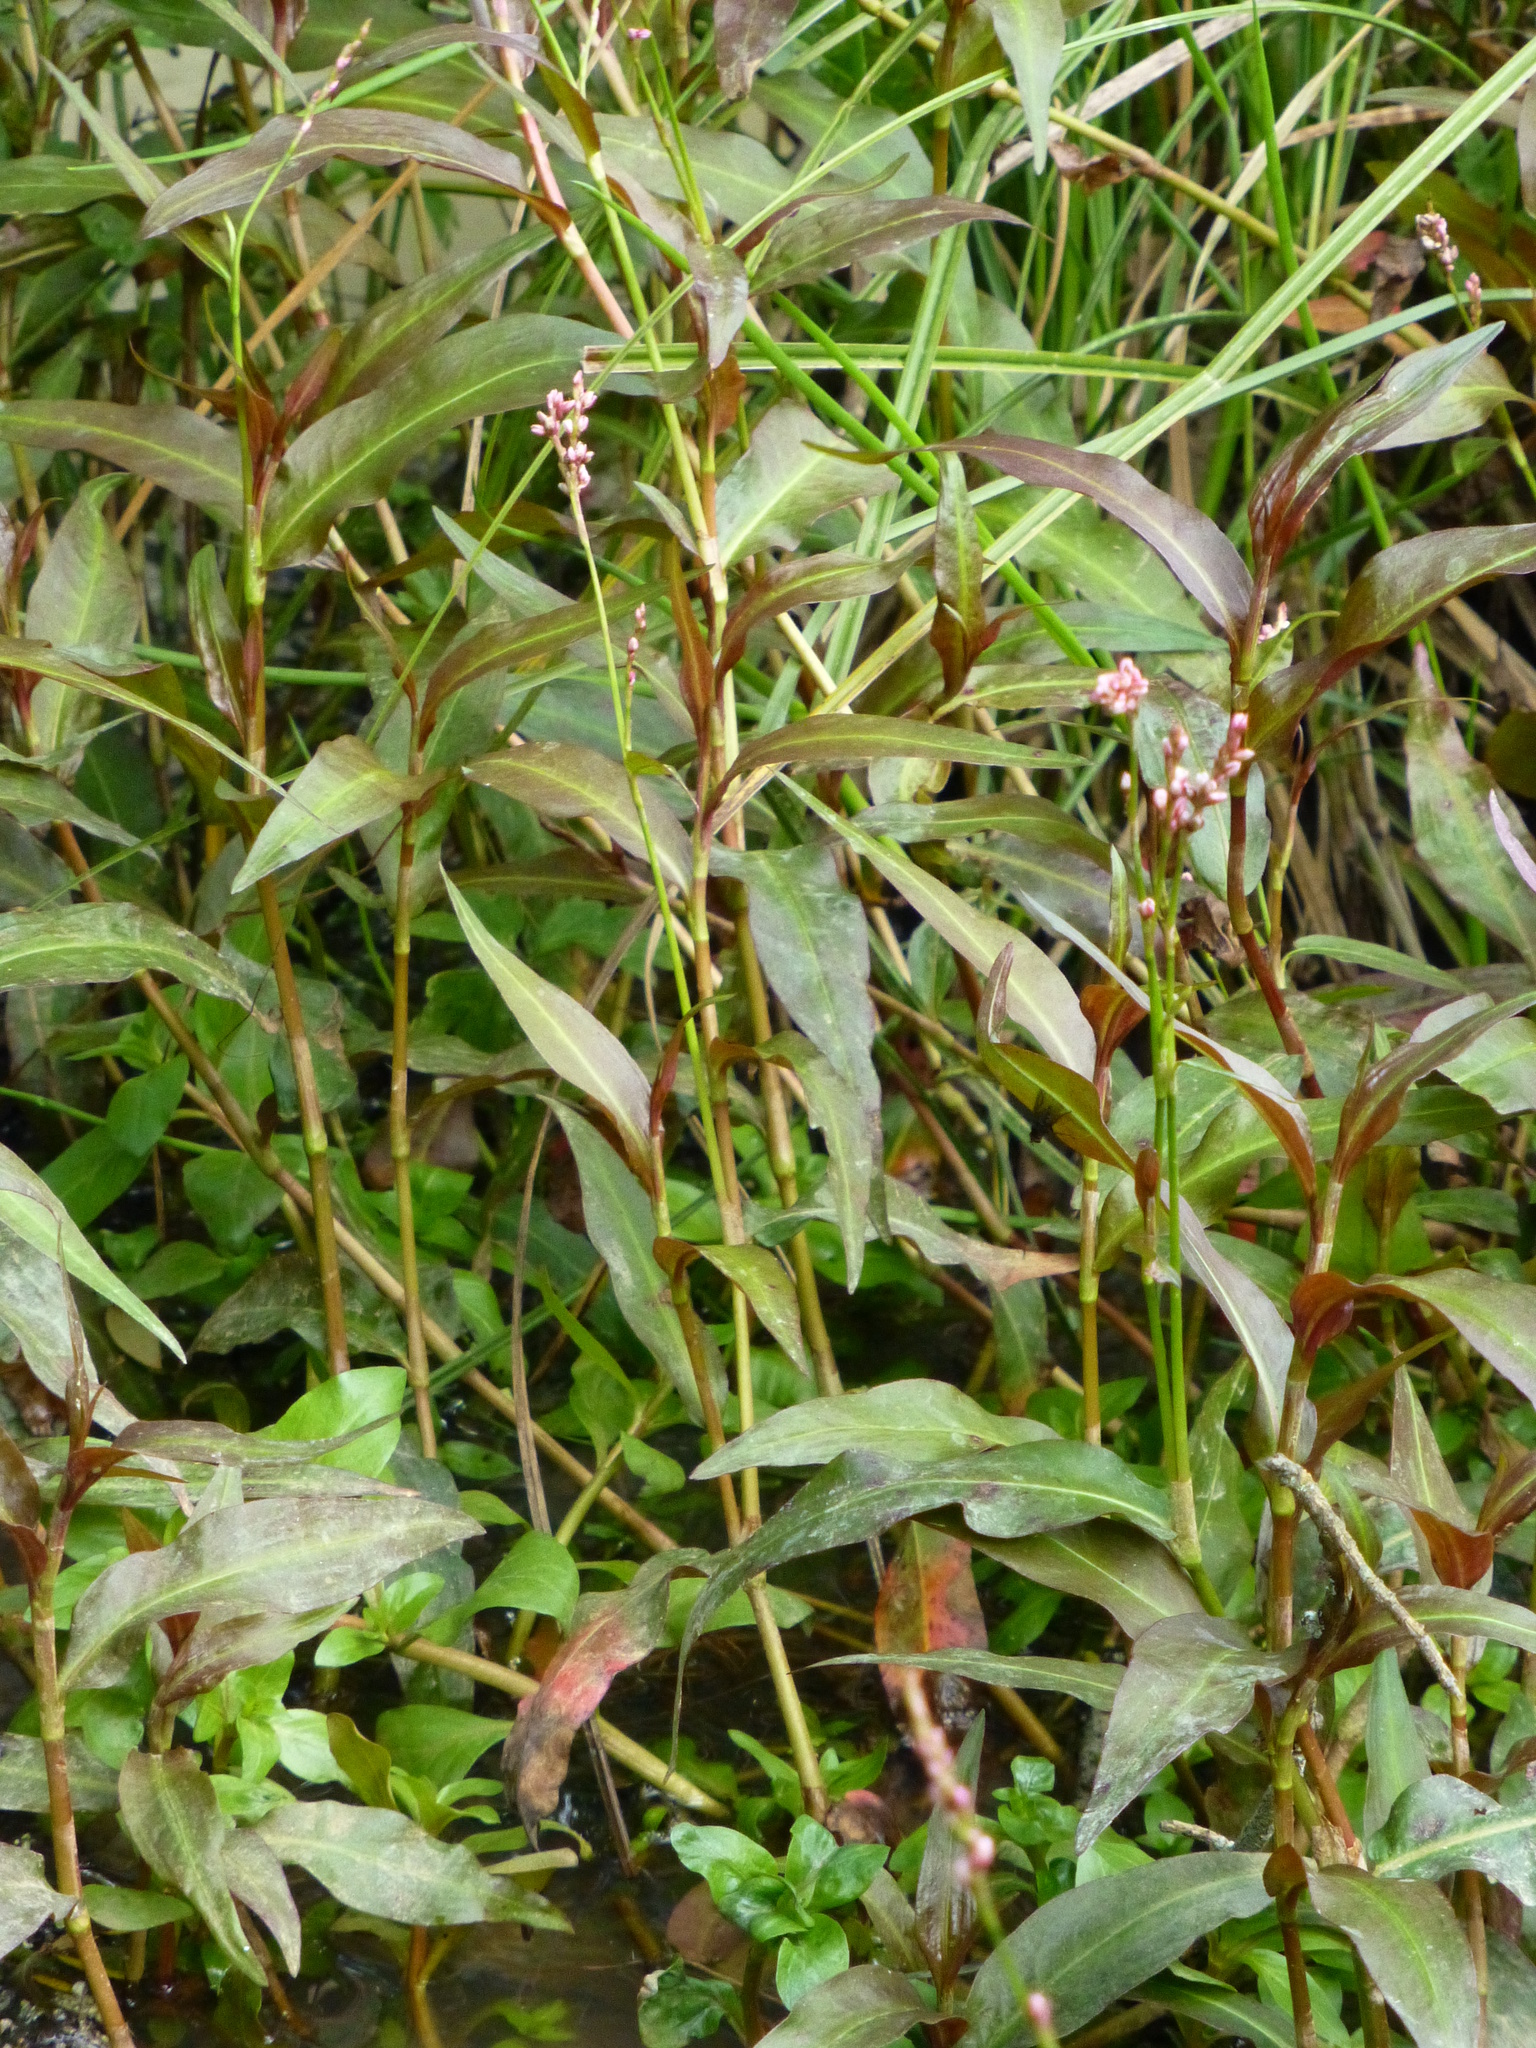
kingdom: Plantae
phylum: Tracheophyta
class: Magnoliopsida
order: Caryophyllales
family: Polygonaceae
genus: Persicaria
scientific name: Persicaria decipiens
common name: Willow-weed
